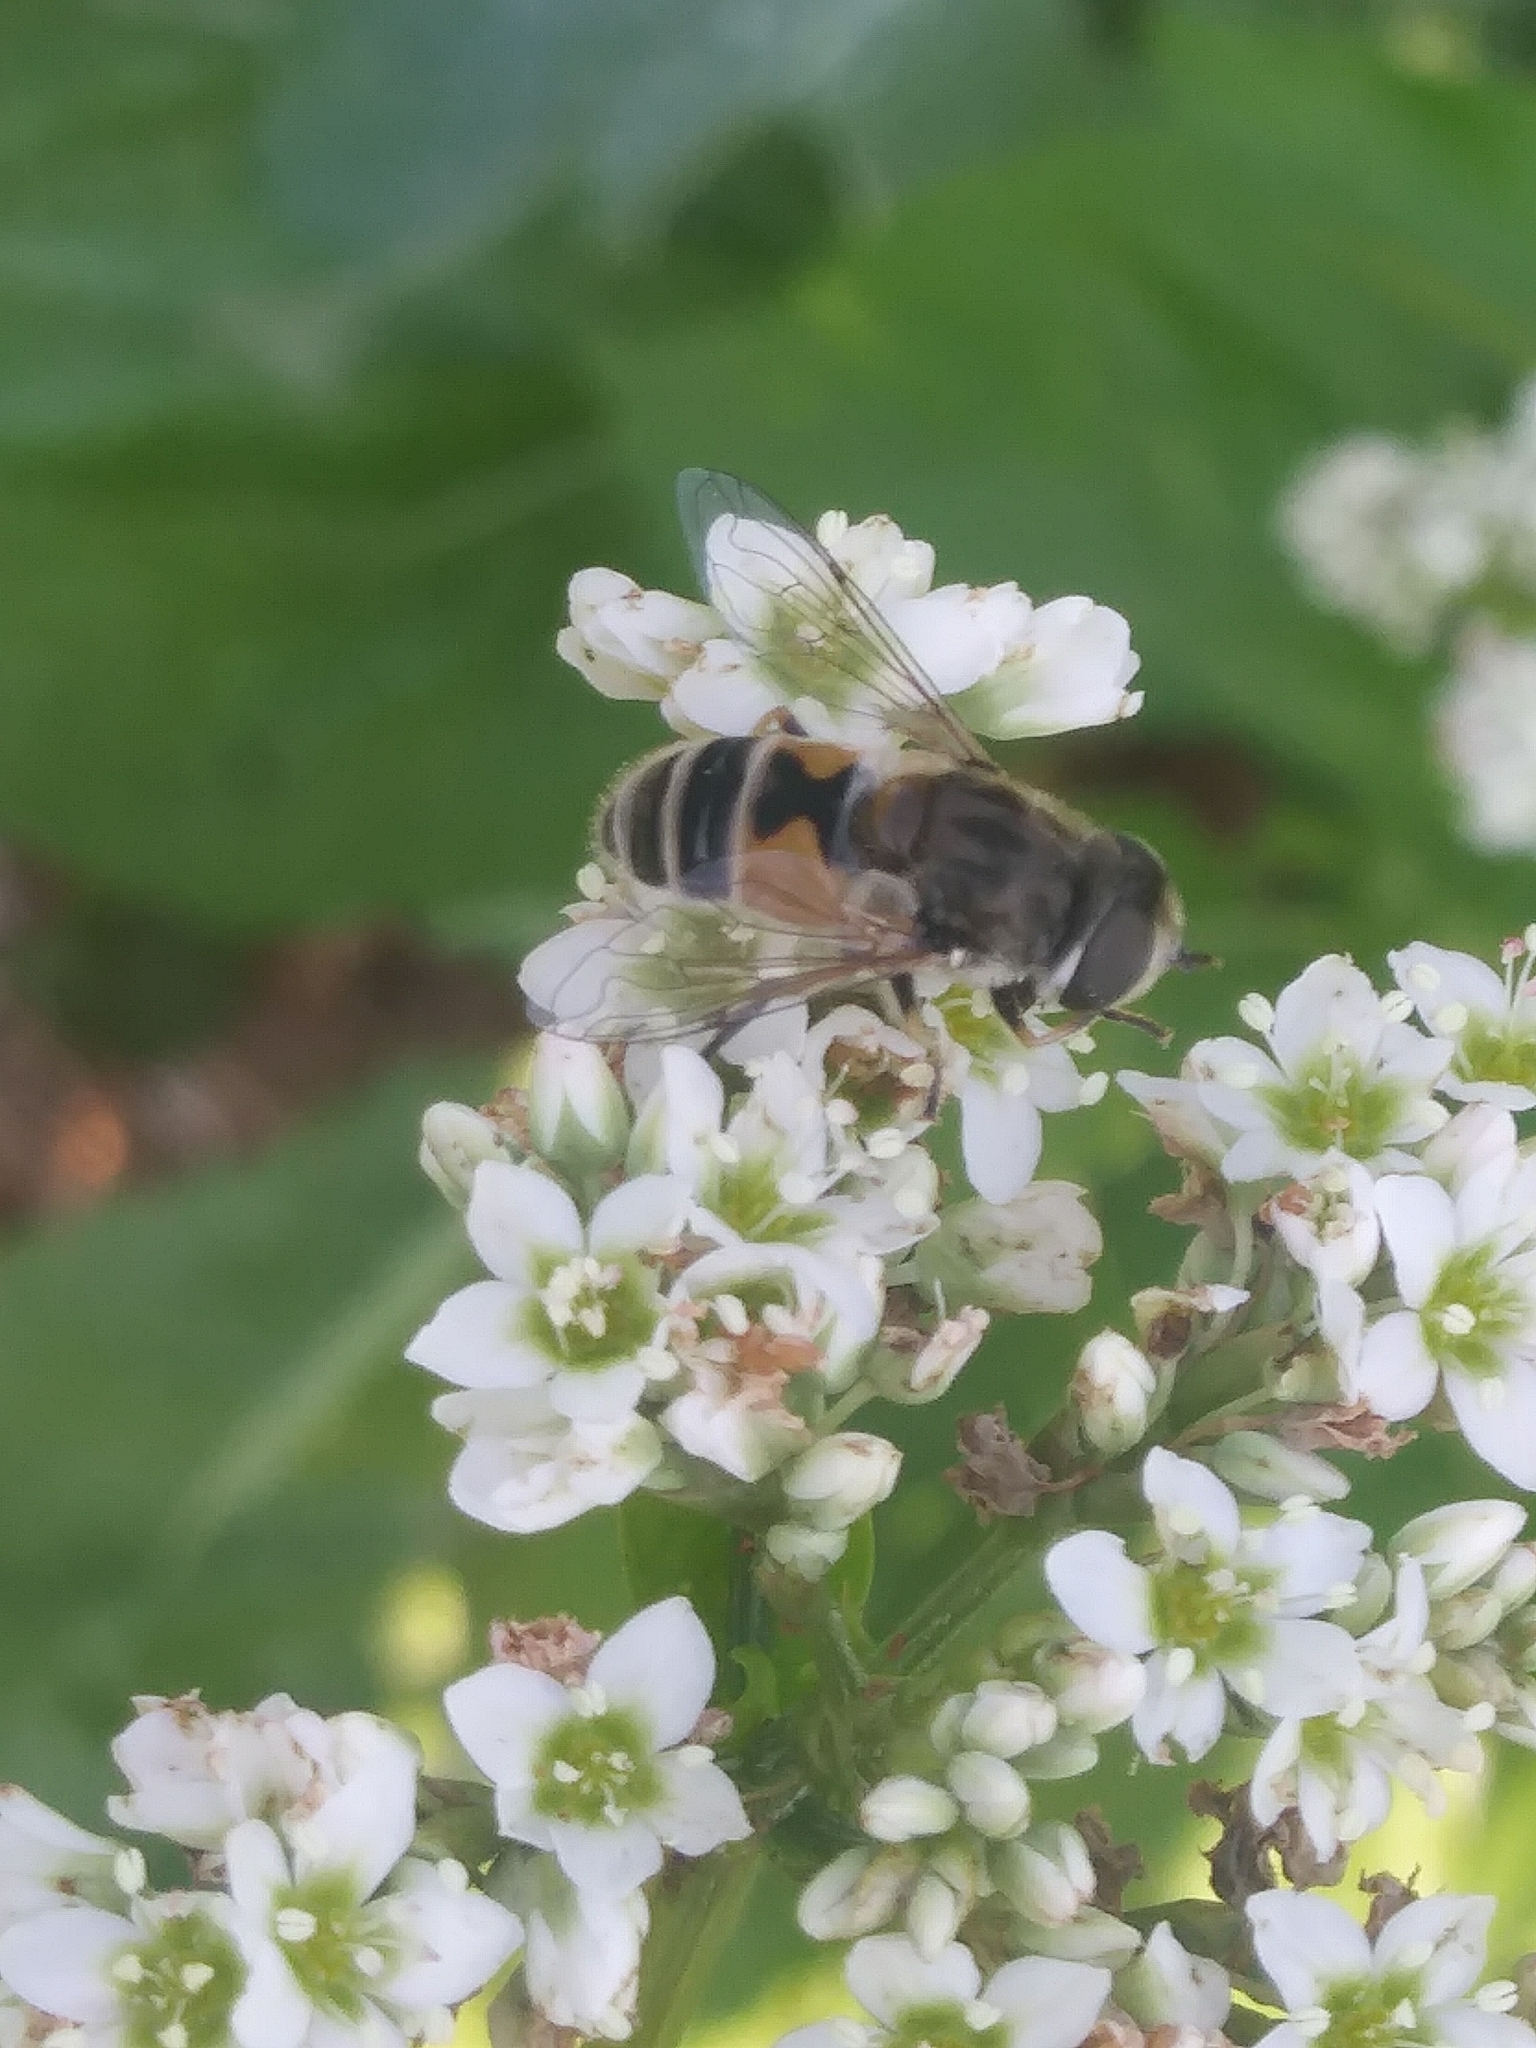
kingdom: Animalia
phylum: Arthropoda
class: Insecta
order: Diptera
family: Syrphidae
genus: Eristalis
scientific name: Eristalis arbustorum
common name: Hover fly
